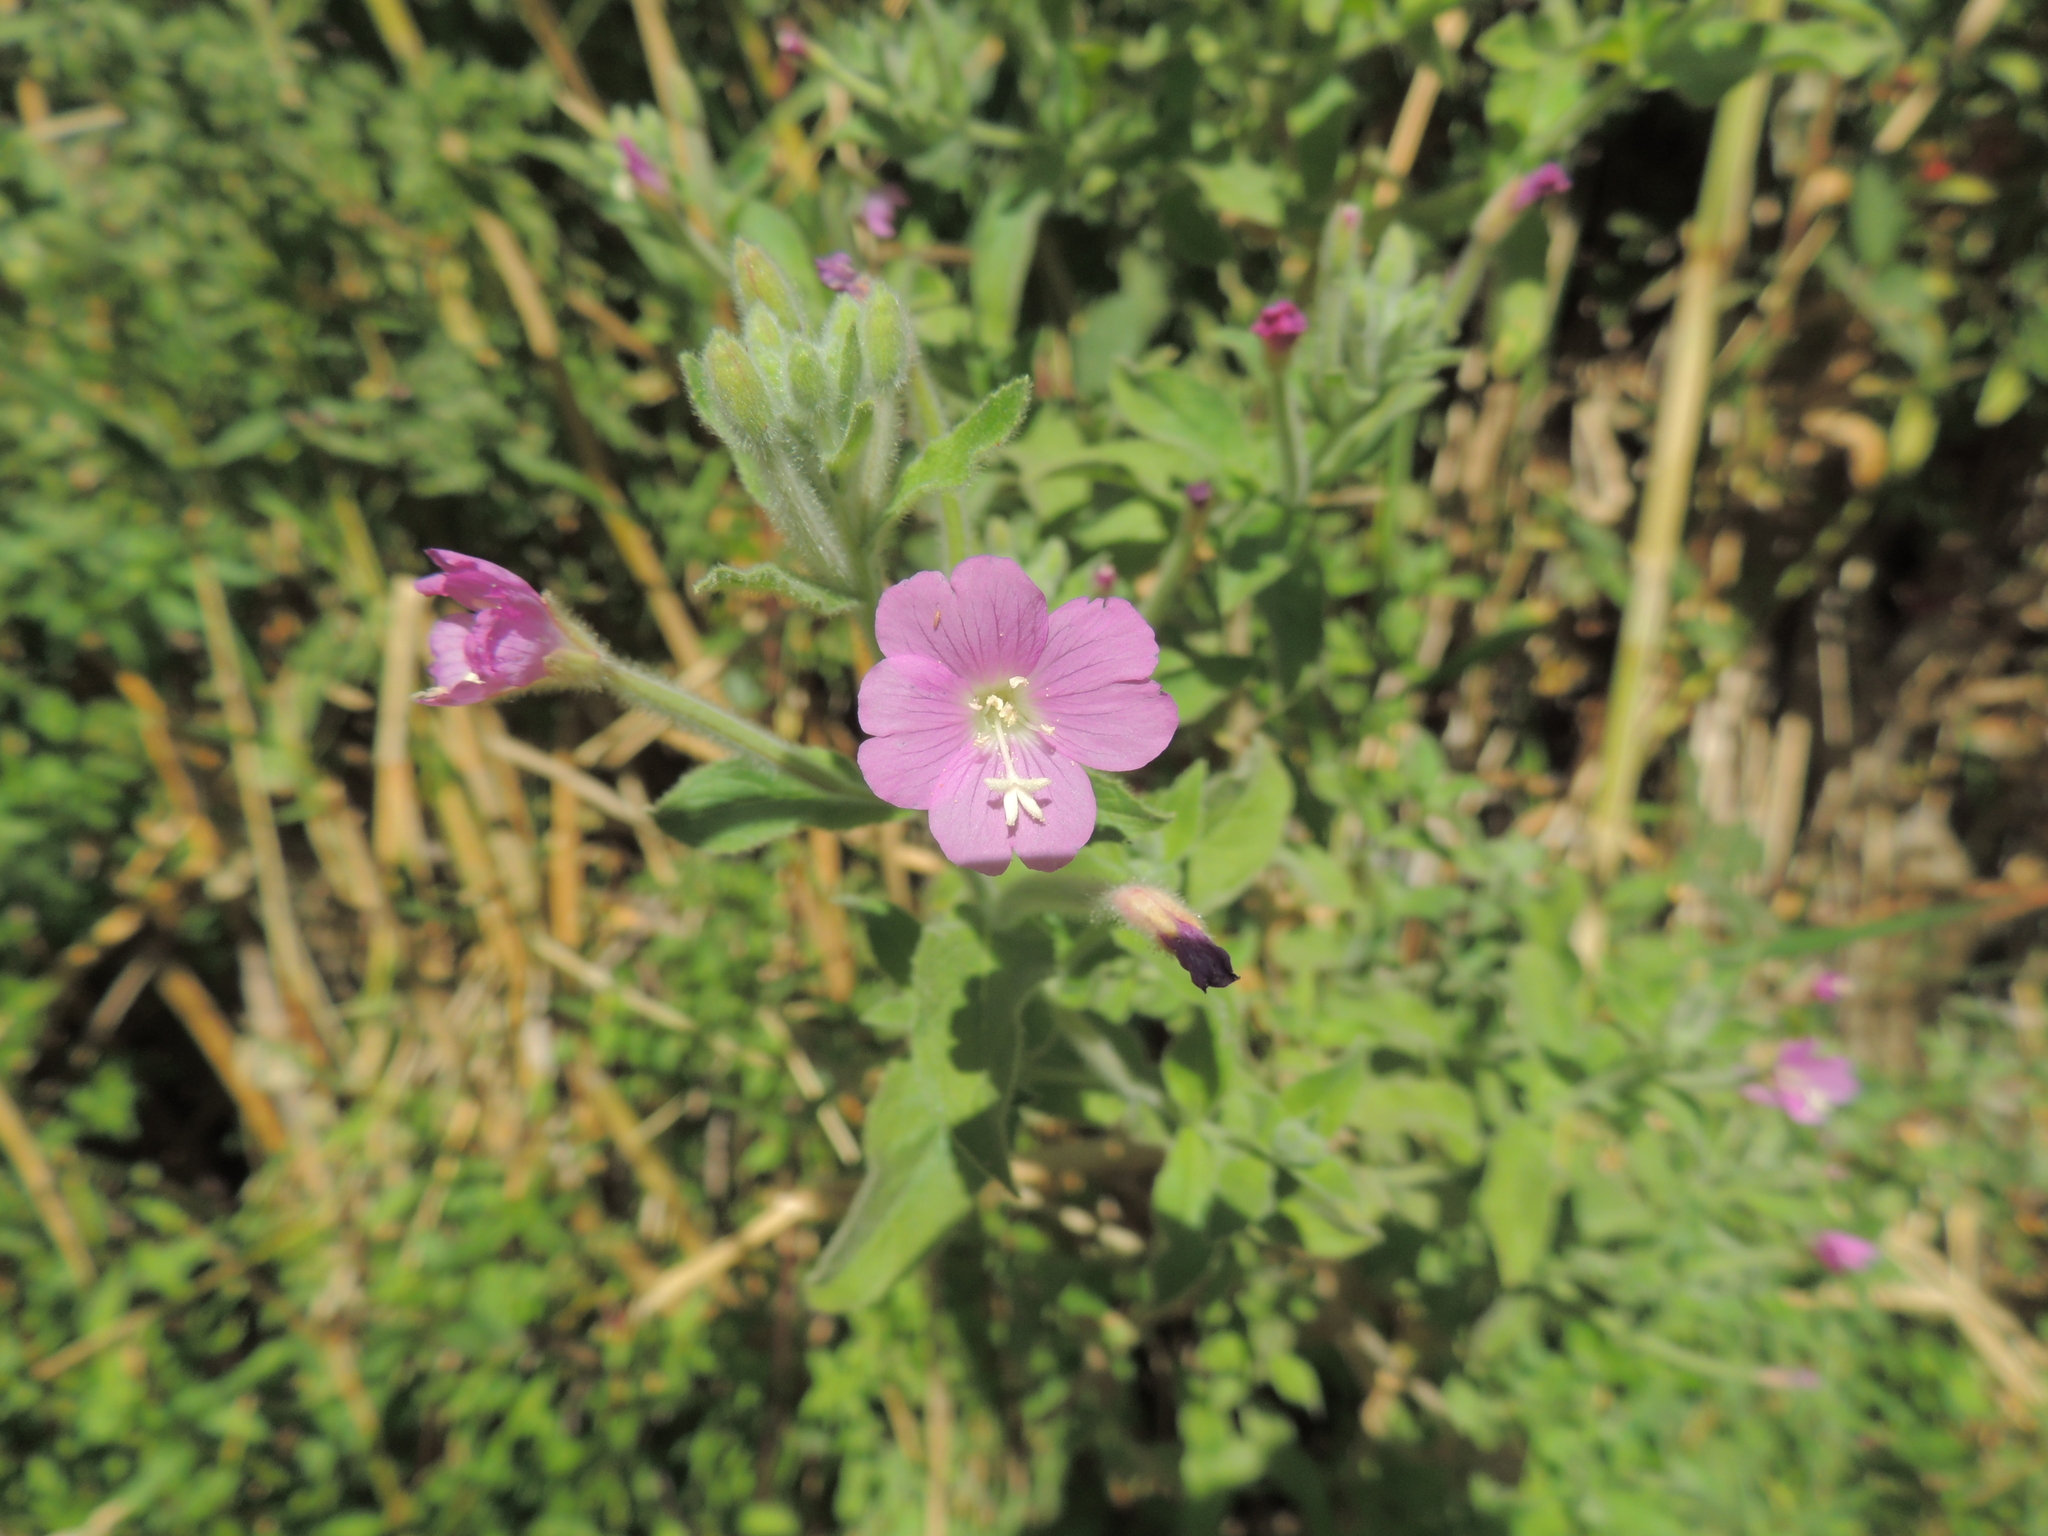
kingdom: Plantae
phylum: Tracheophyta
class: Magnoliopsida
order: Myrtales
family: Onagraceae
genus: Epilobium
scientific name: Epilobium hirsutum
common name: Great willowherb
